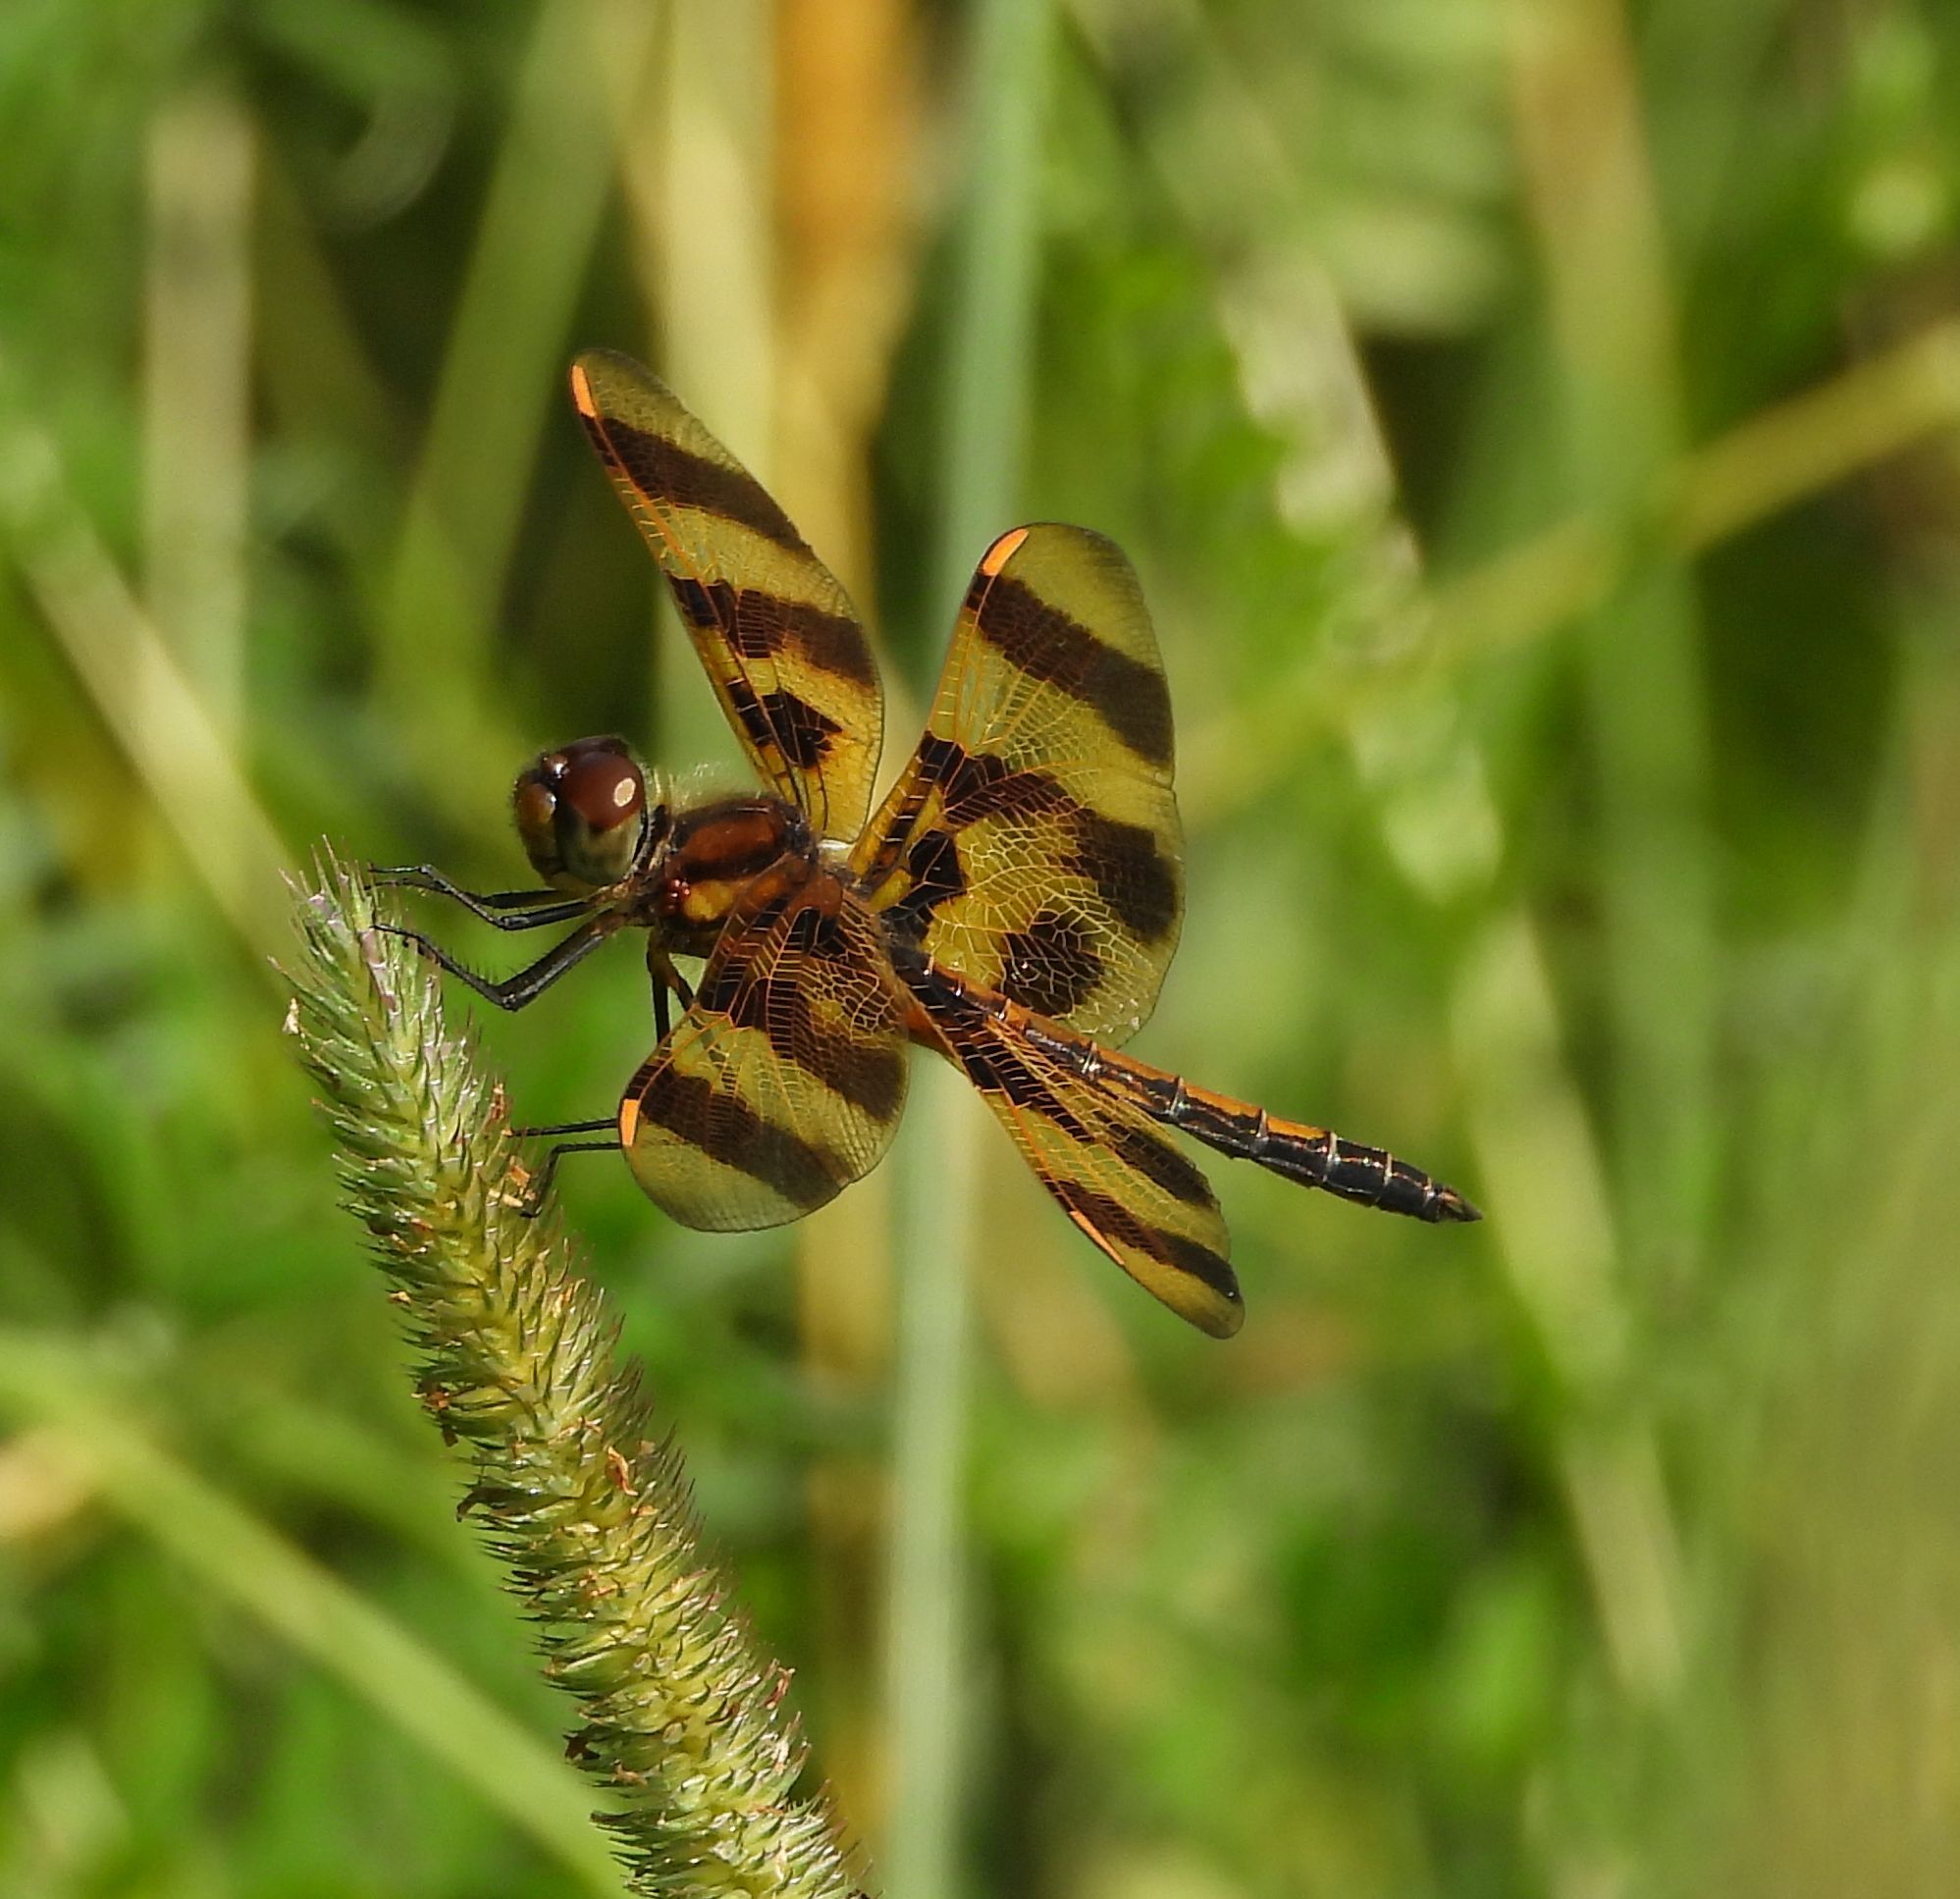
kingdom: Animalia
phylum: Arthropoda
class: Insecta
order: Odonata
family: Libellulidae
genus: Celithemis
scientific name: Celithemis eponina
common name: Halloween pennant
